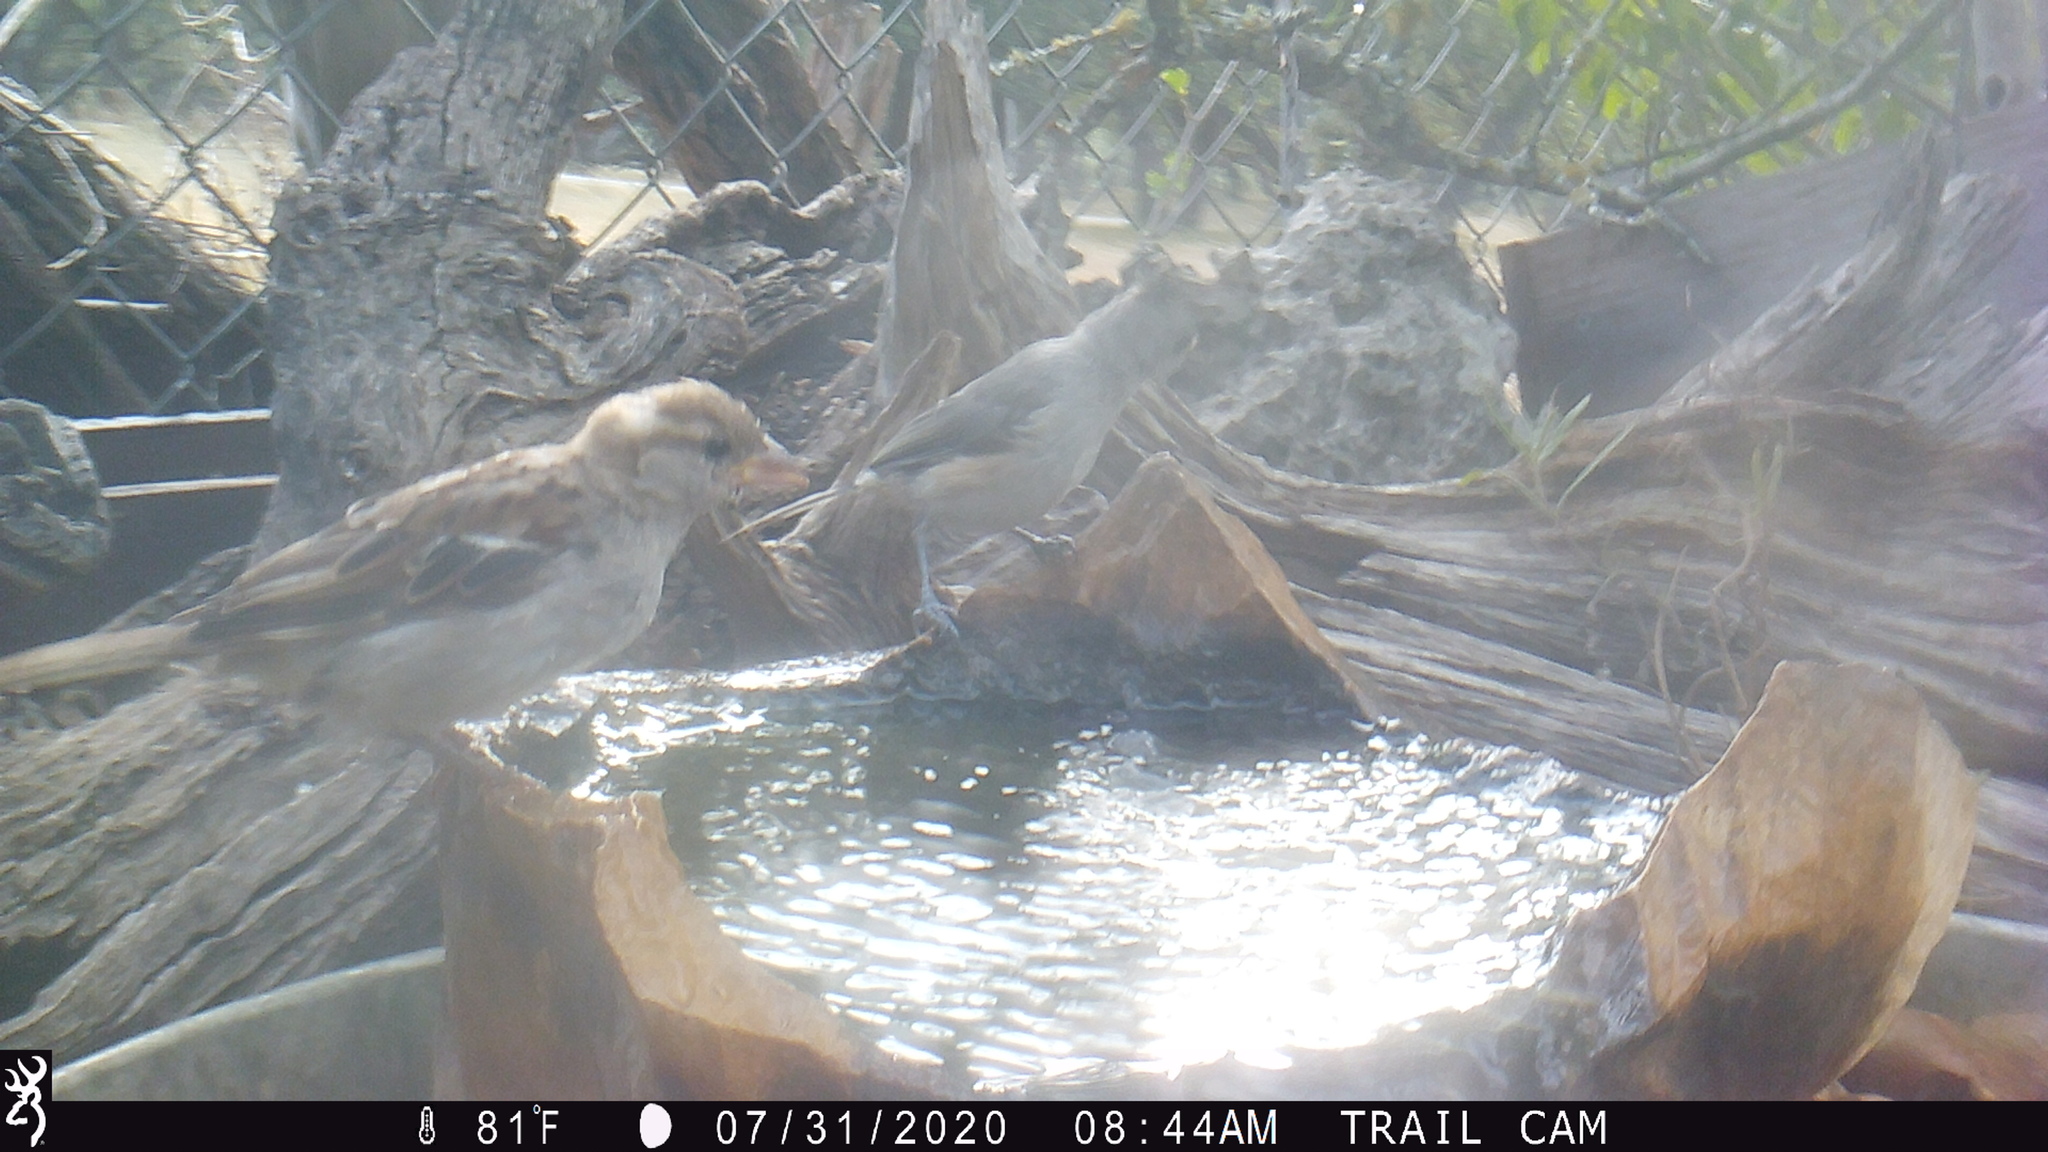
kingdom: Animalia
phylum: Chordata
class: Aves
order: Passeriformes
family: Passeridae
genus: Passer
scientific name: Passer domesticus
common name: House sparrow
